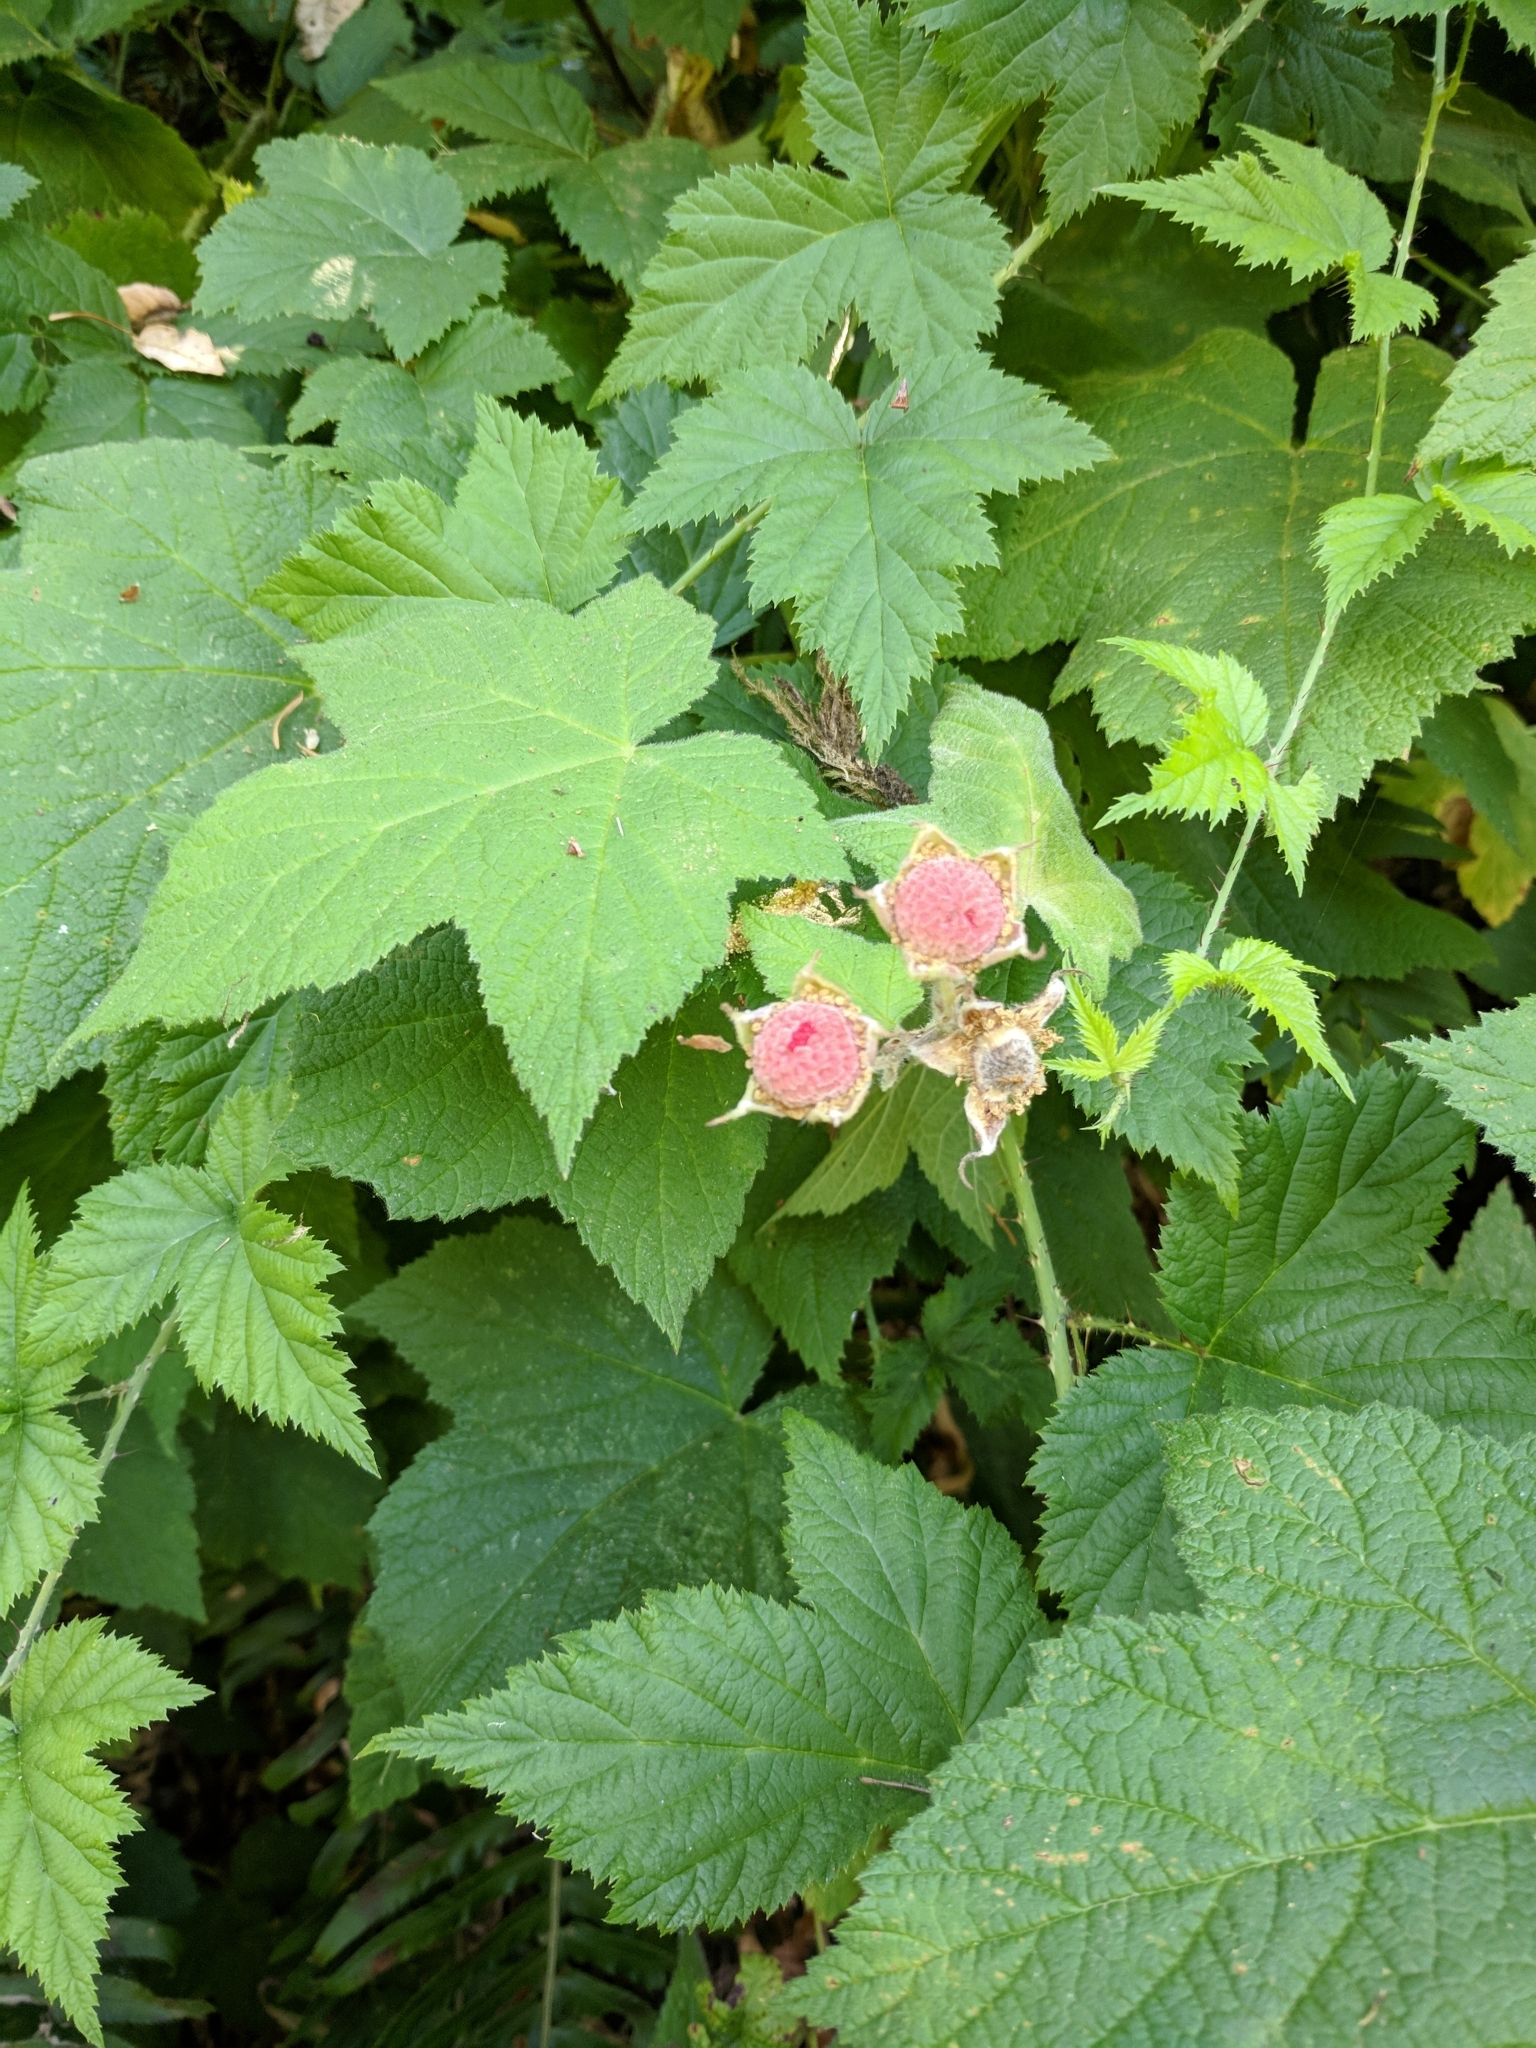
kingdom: Plantae
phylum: Tracheophyta
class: Magnoliopsida
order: Rosales
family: Rosaceae
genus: Rubus
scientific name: Rubus parviflorus
